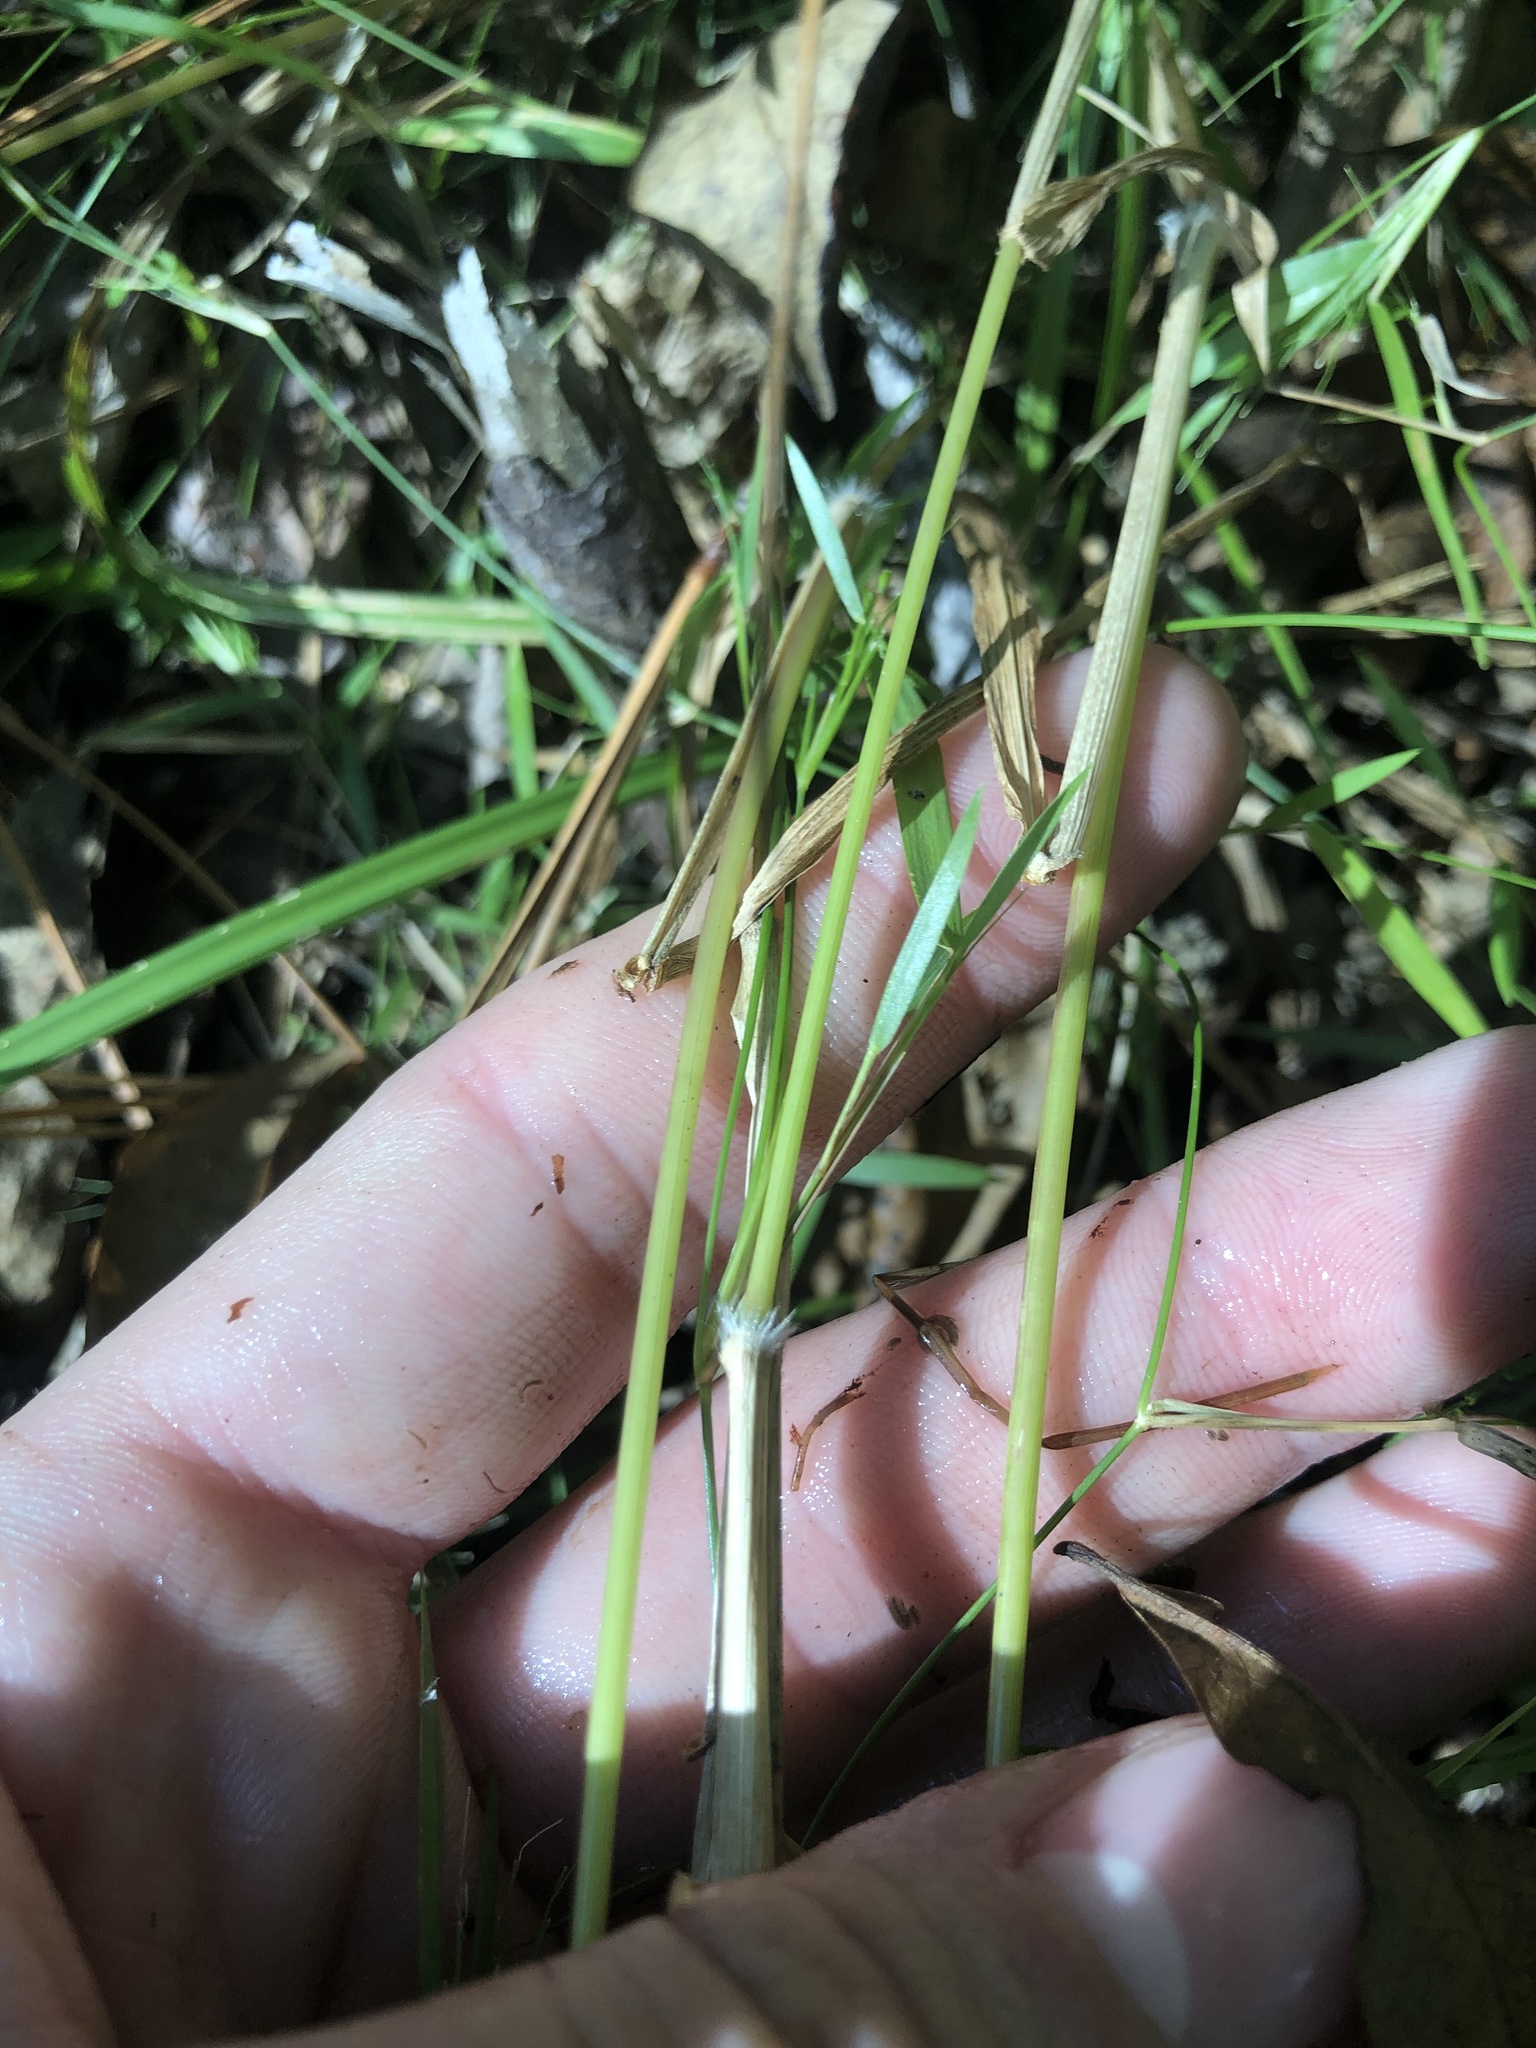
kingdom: Plantae
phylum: Tracheophyta
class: Liliopsida
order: Poales
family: Poaceae
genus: Dichanthelium
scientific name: Dichanthelium microcarpon
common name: Small-fruited witchgrass
